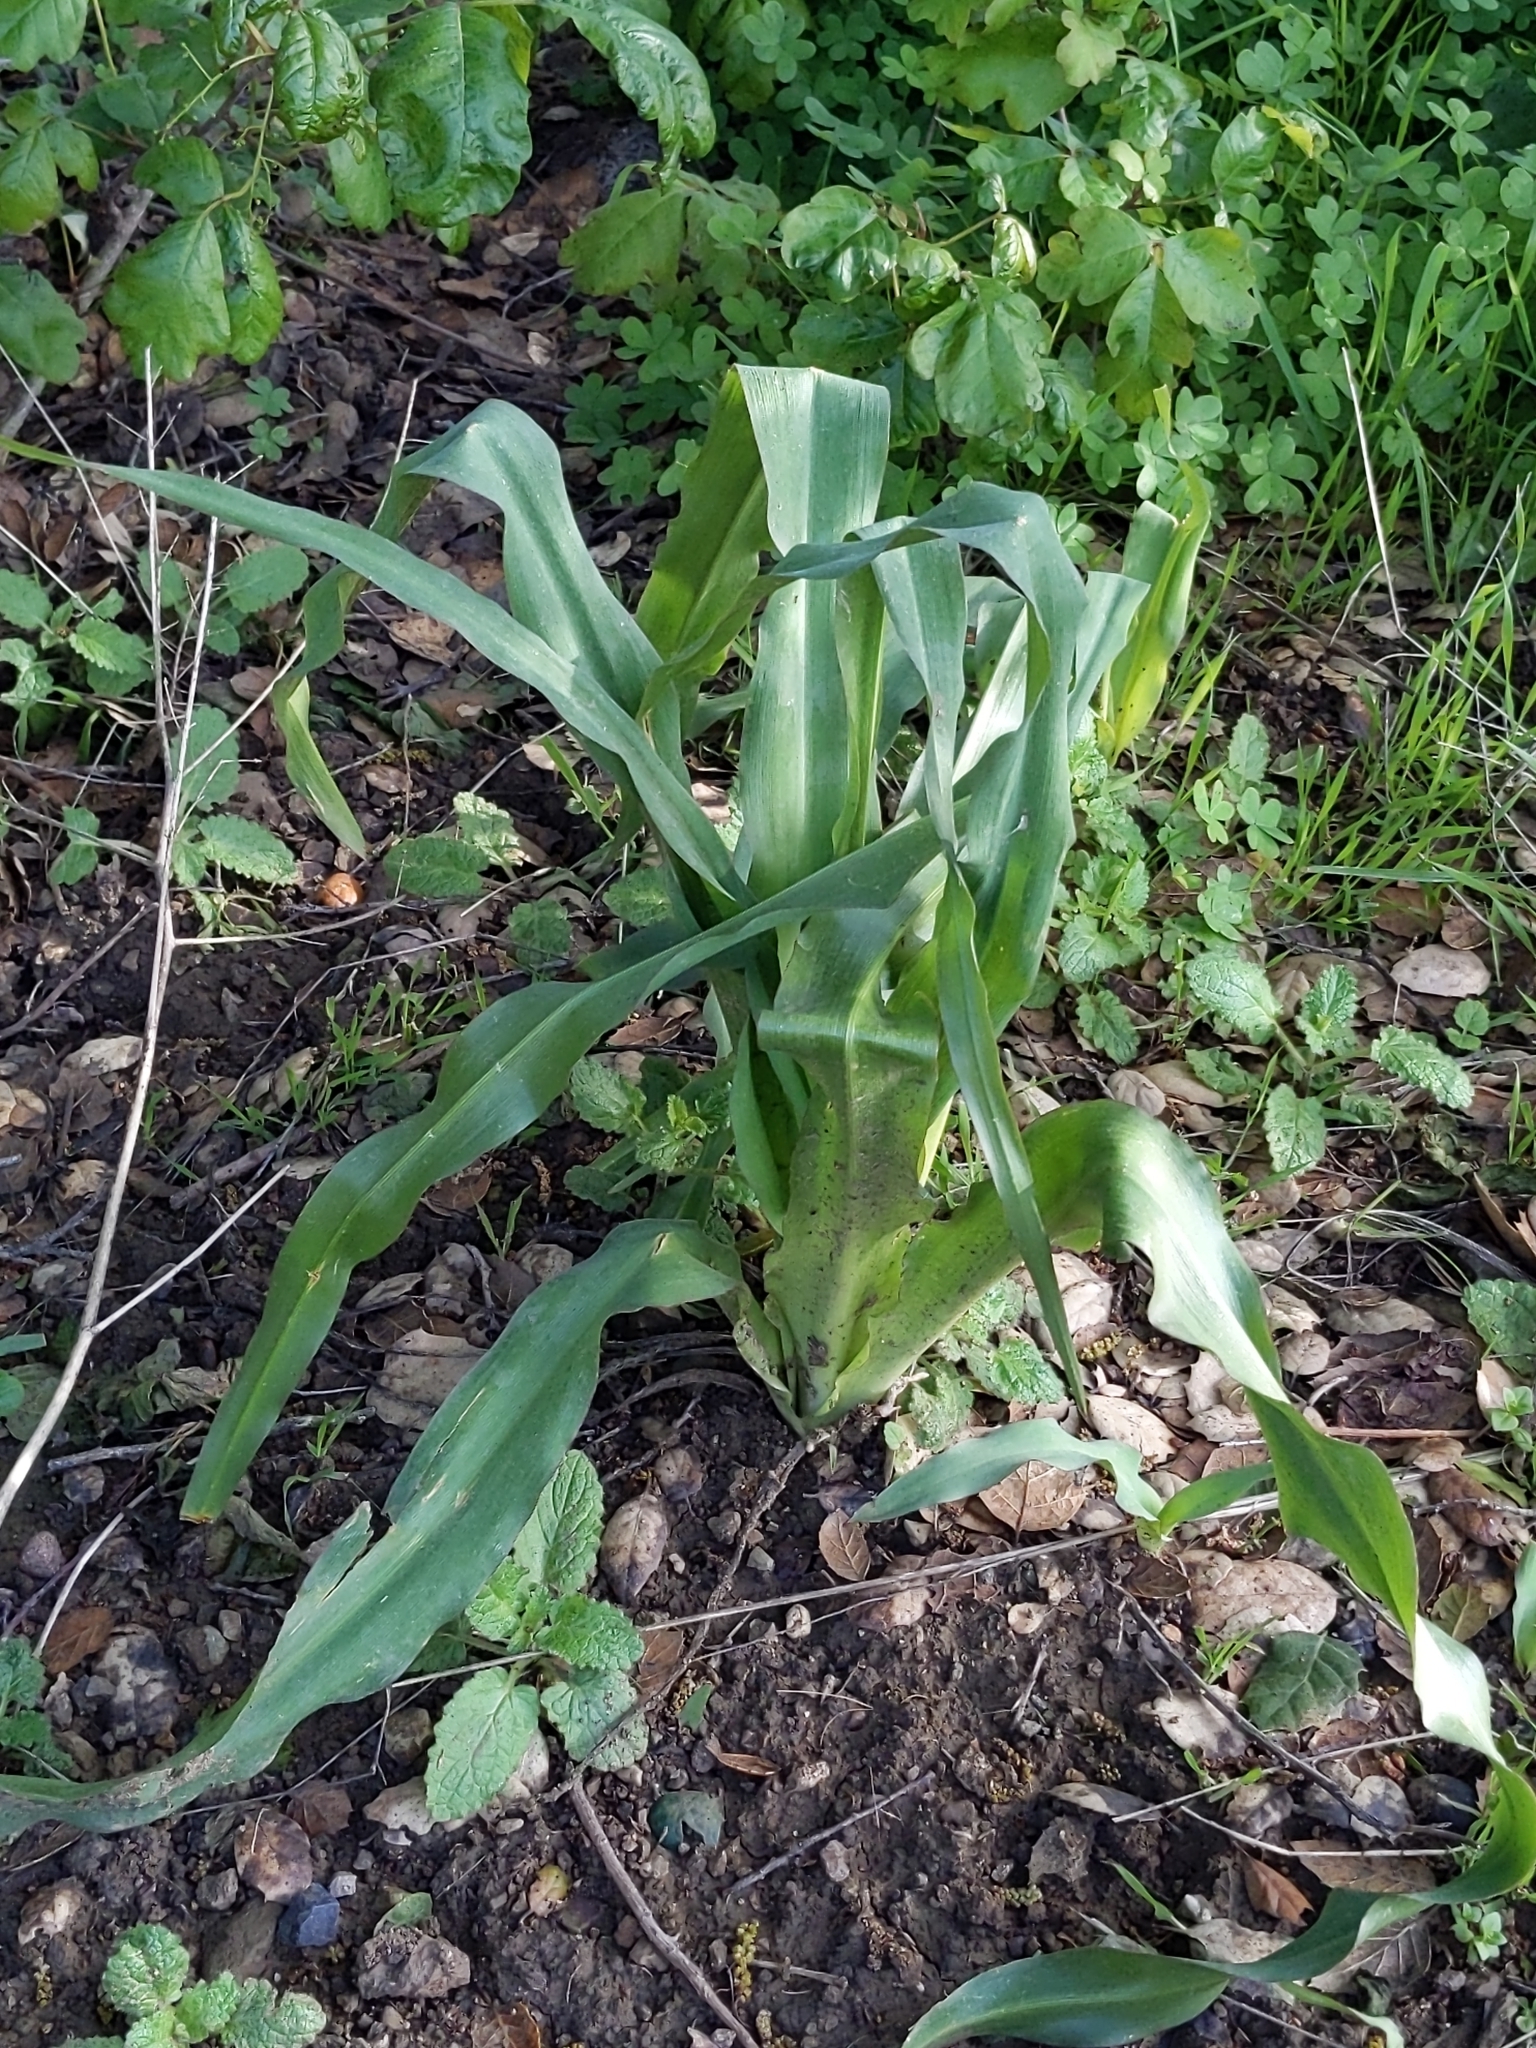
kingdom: Plantae
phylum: Tracheophyta
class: Liliopsida
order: Asparagales
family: Asparagaceae
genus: Chlorogalum
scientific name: Chlorogalum pomeridianum
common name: Amole
